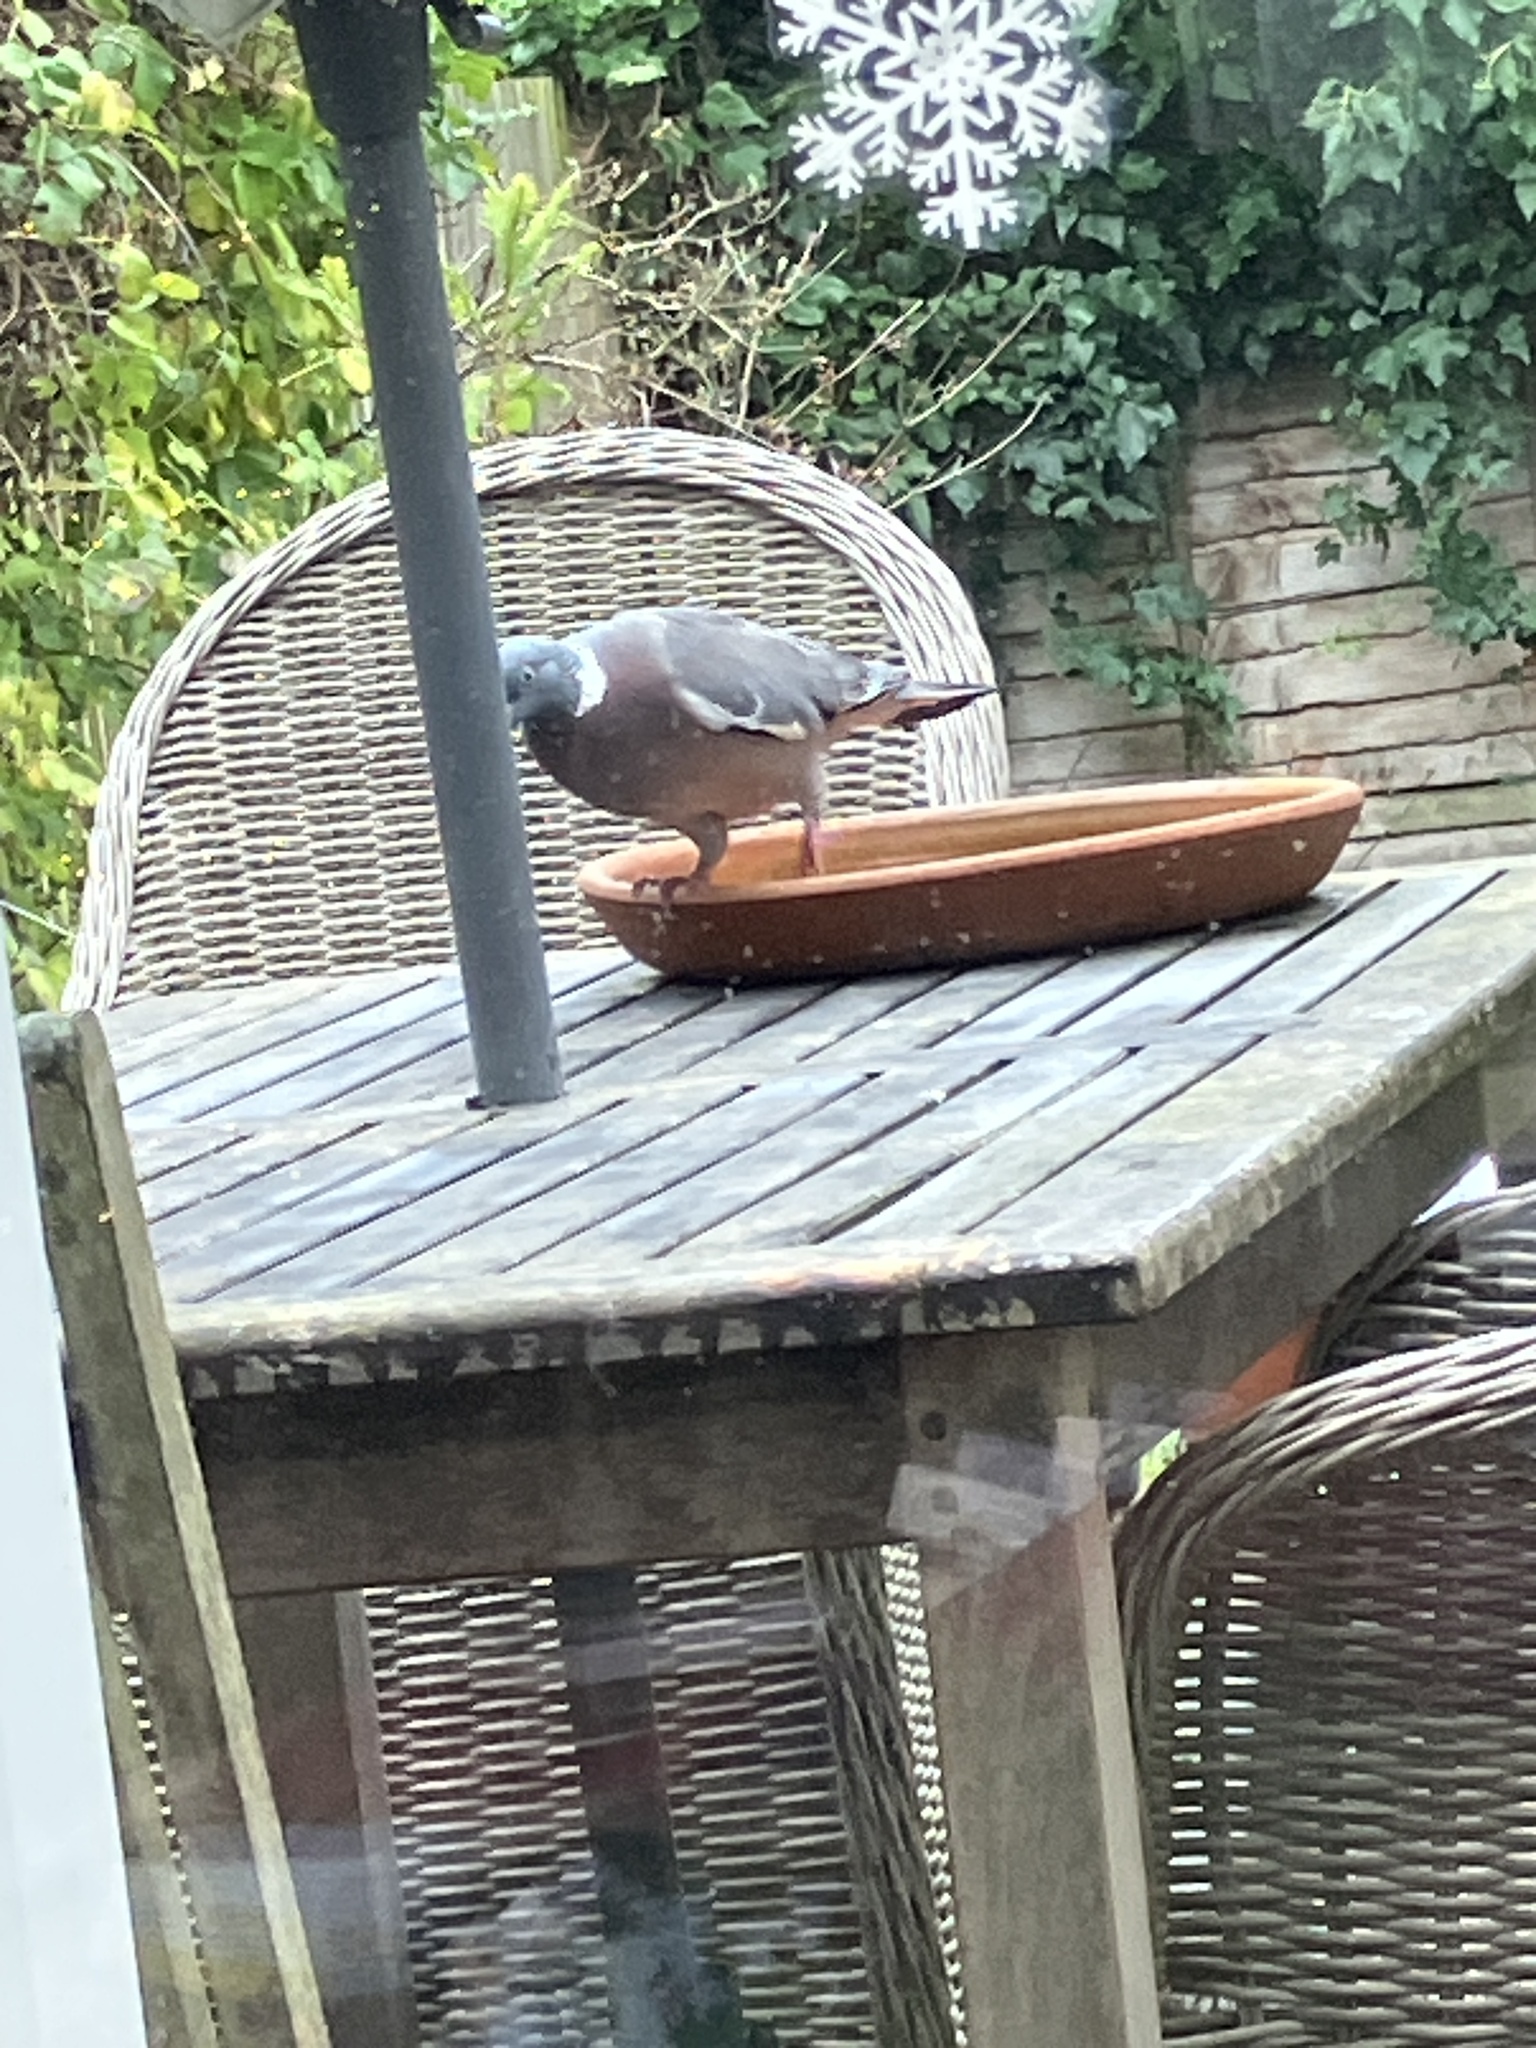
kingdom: Animalia
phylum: Chordata
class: Aves
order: Columbiformes
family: Columbidae
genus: Columba
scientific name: Columba palumbus
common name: Common wood pigeon
